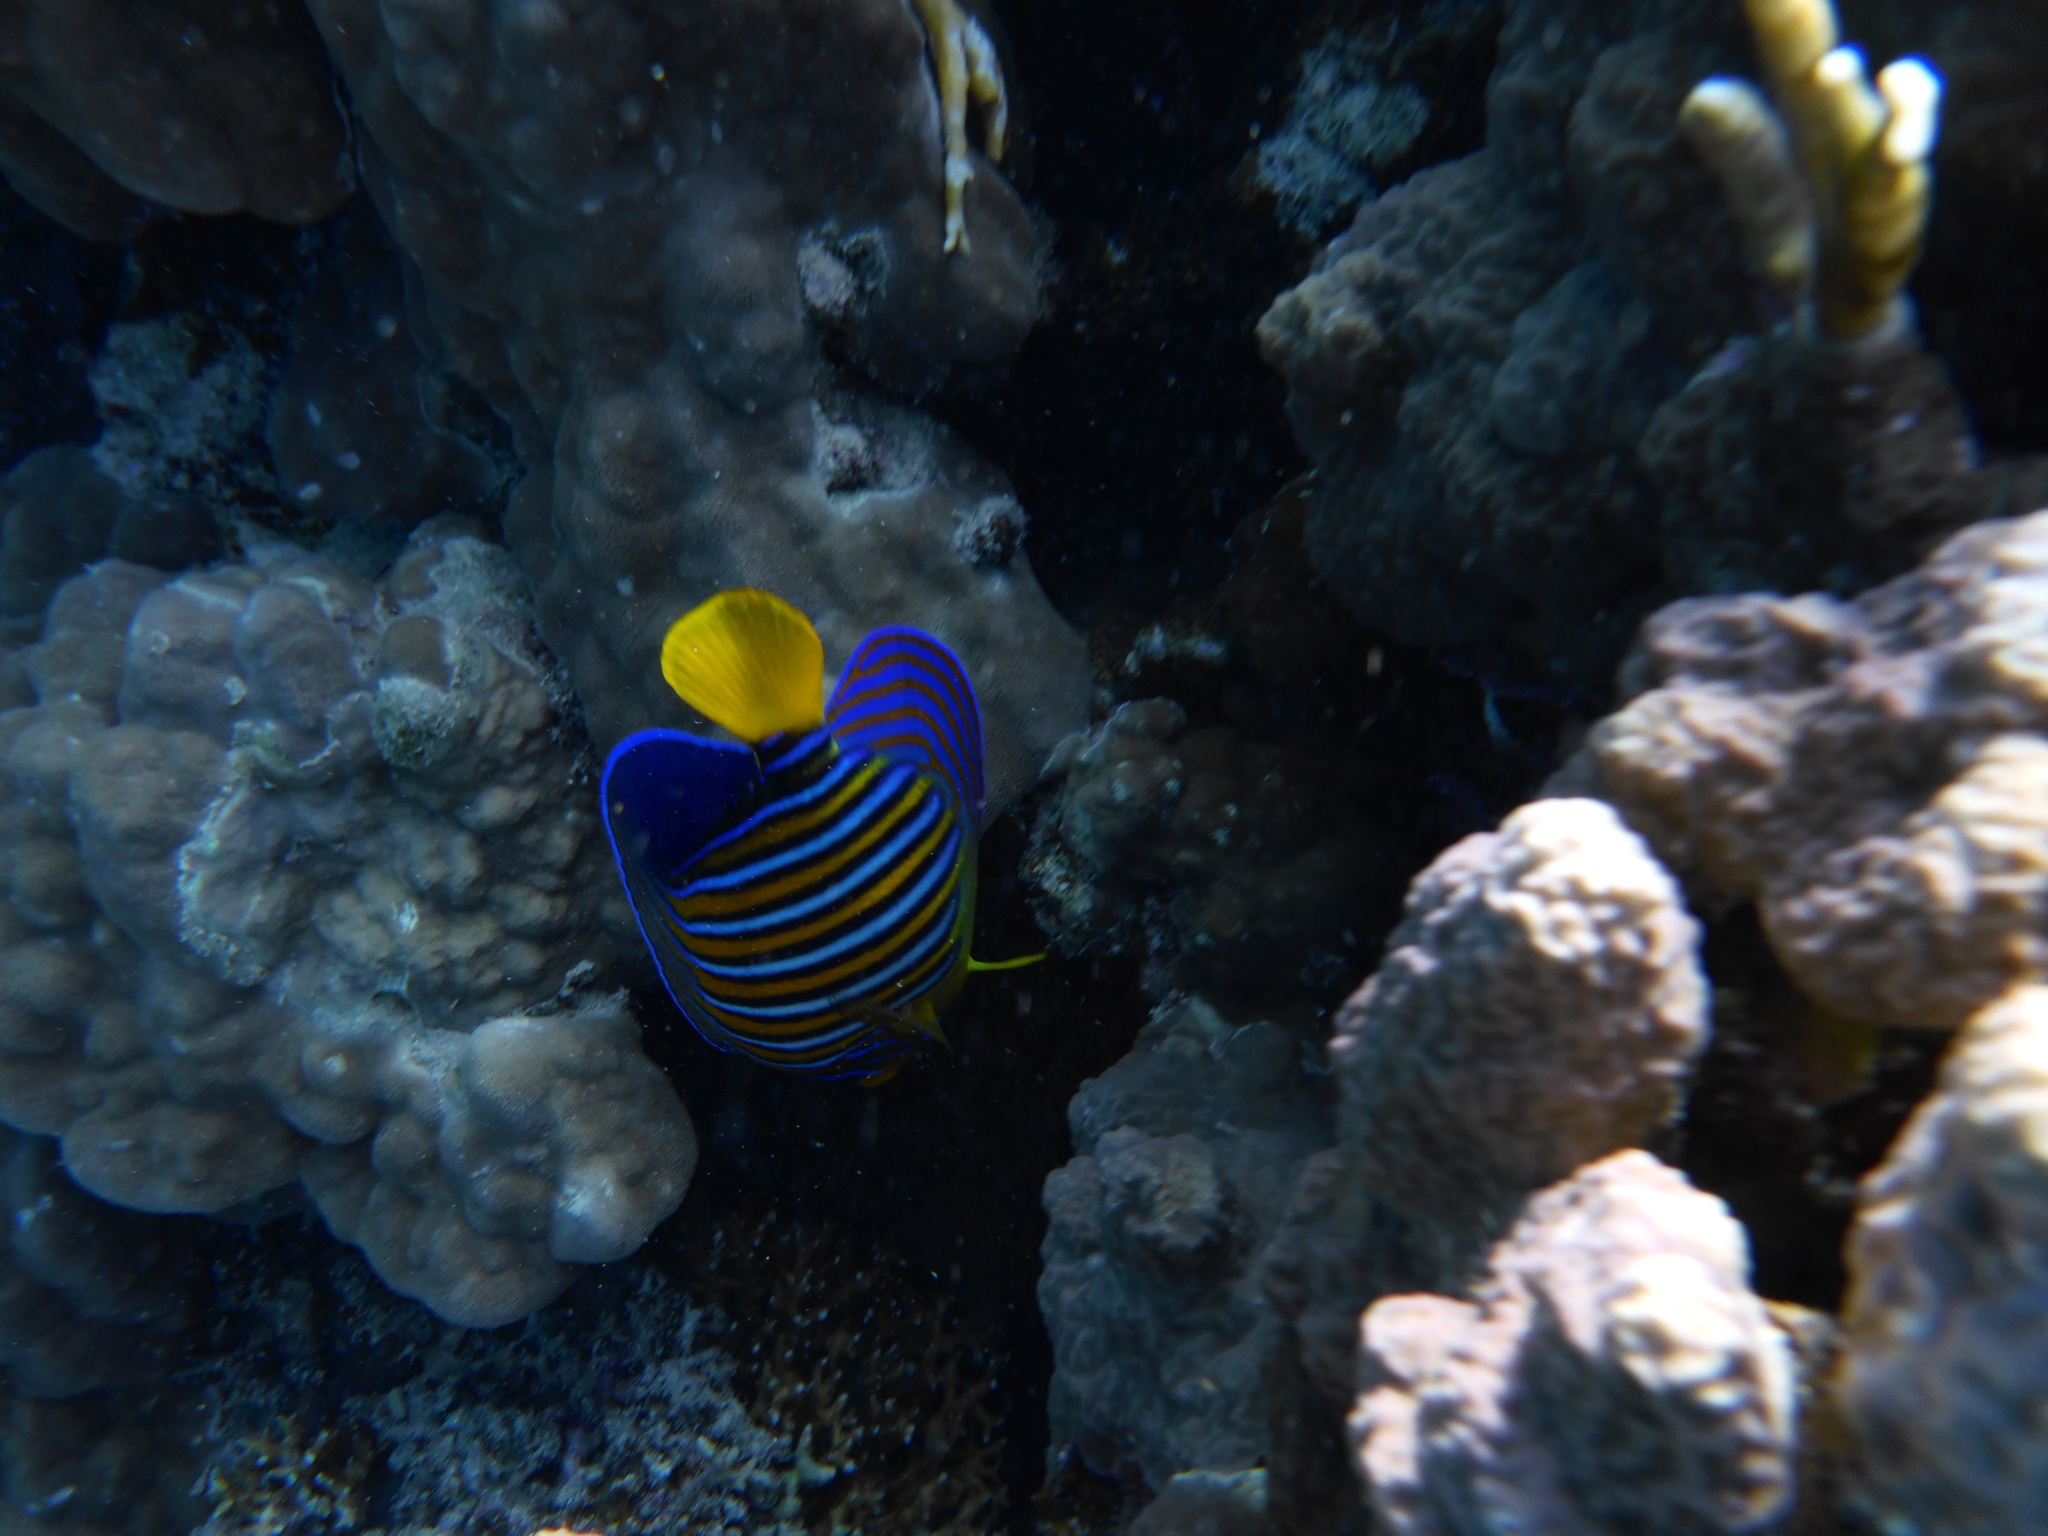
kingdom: Animalia
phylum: Chordata
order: Perciformes
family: Pomacanthidae
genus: Pygoplites
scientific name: Pygoplites diacanthus
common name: Regal angelfish
